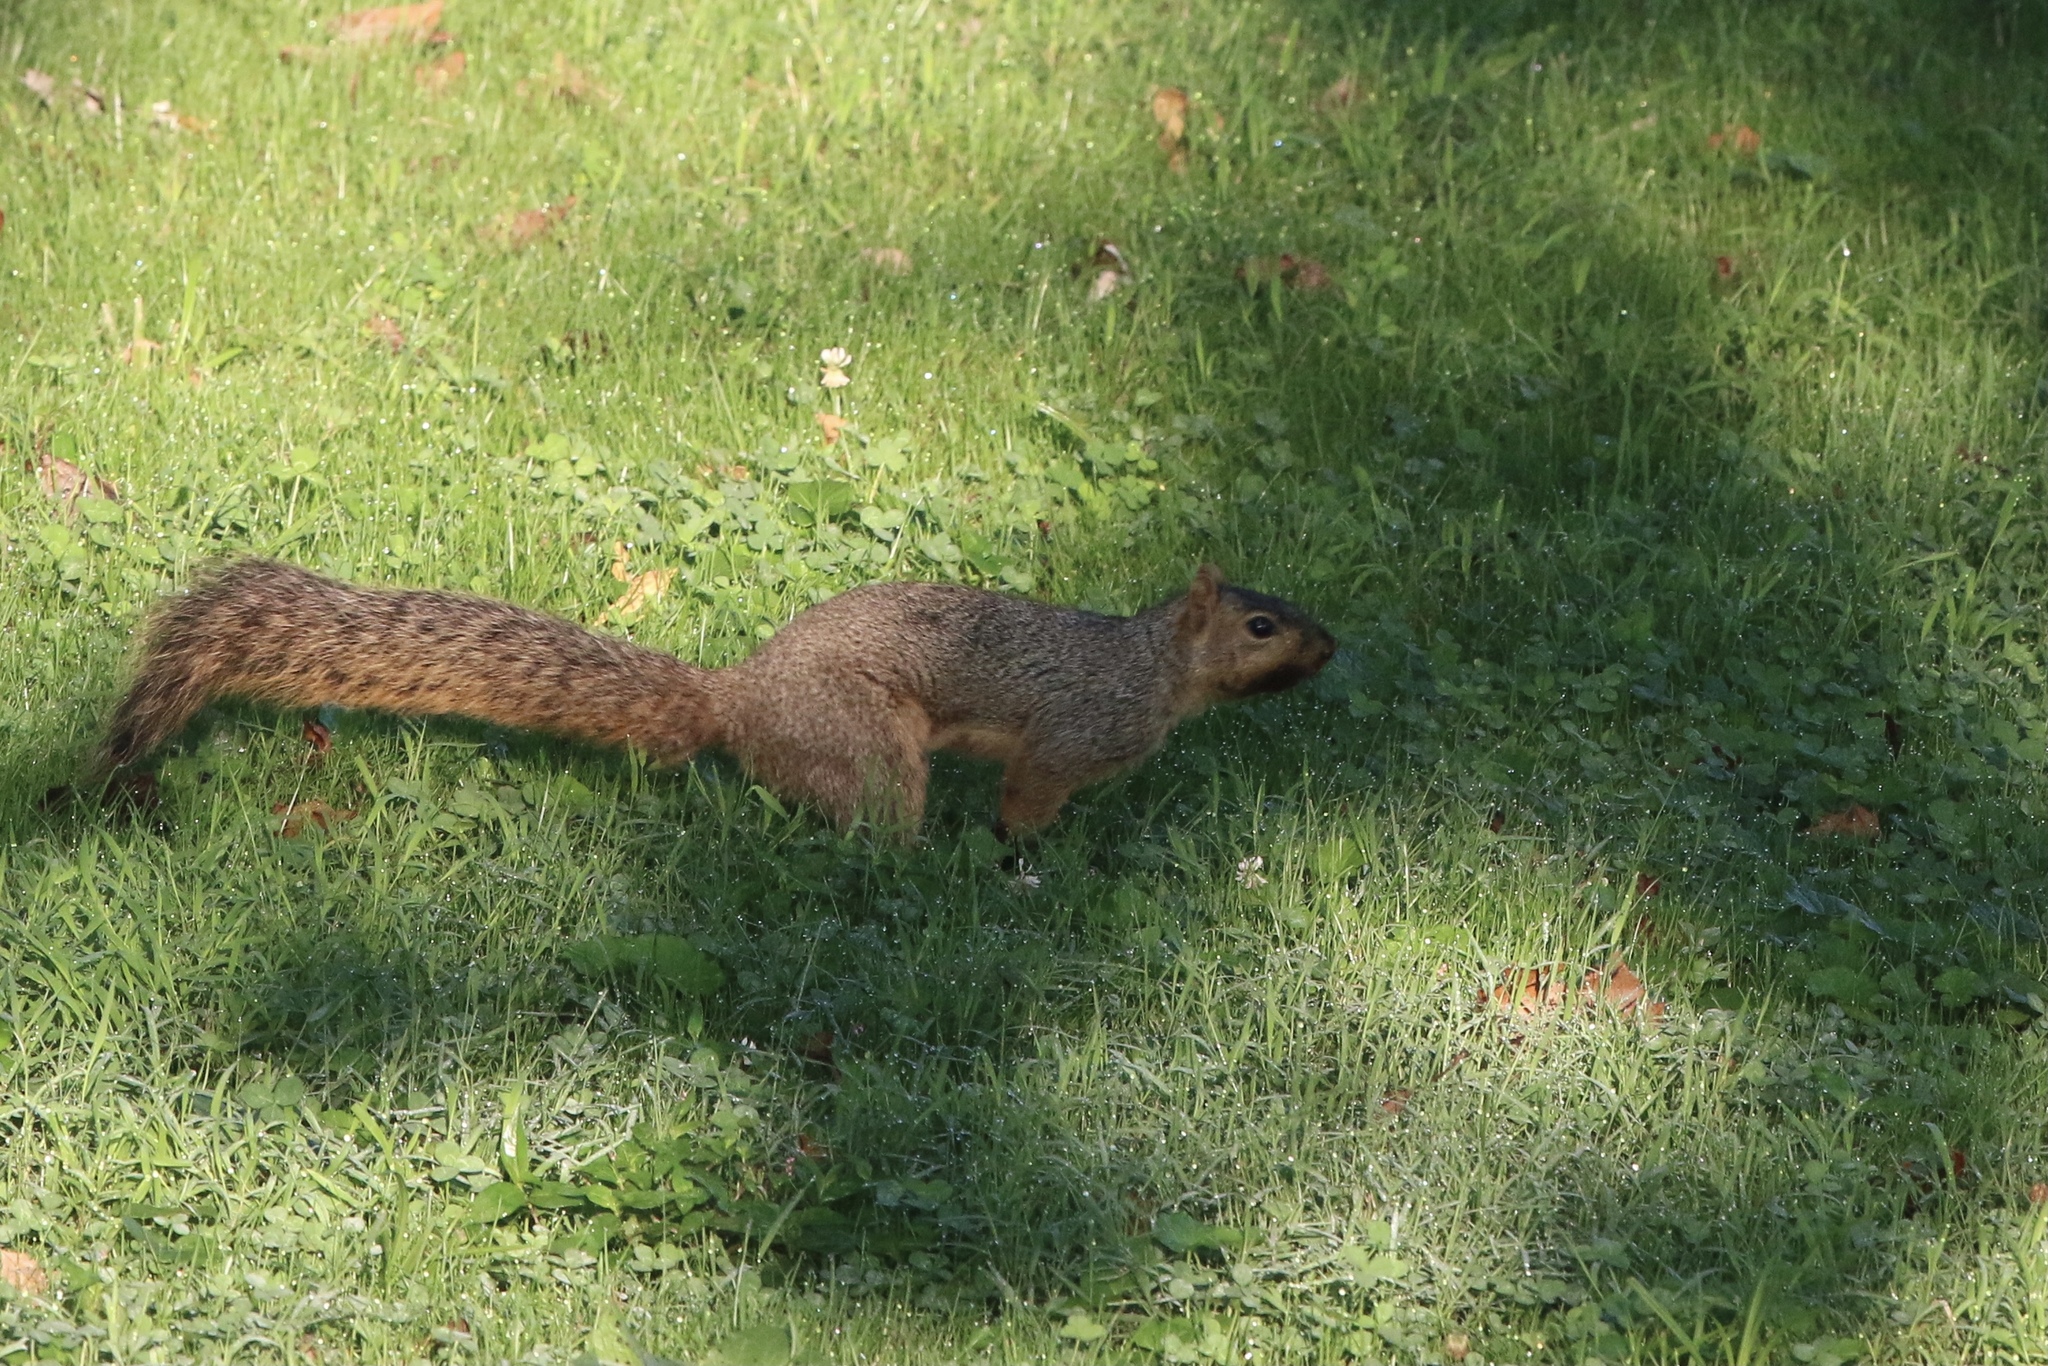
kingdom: Animalia
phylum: Chordata
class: Mammalia
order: Rodentia
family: Sciuridae
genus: Sciurus
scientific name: Sciurus niger
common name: Fox squirrel
